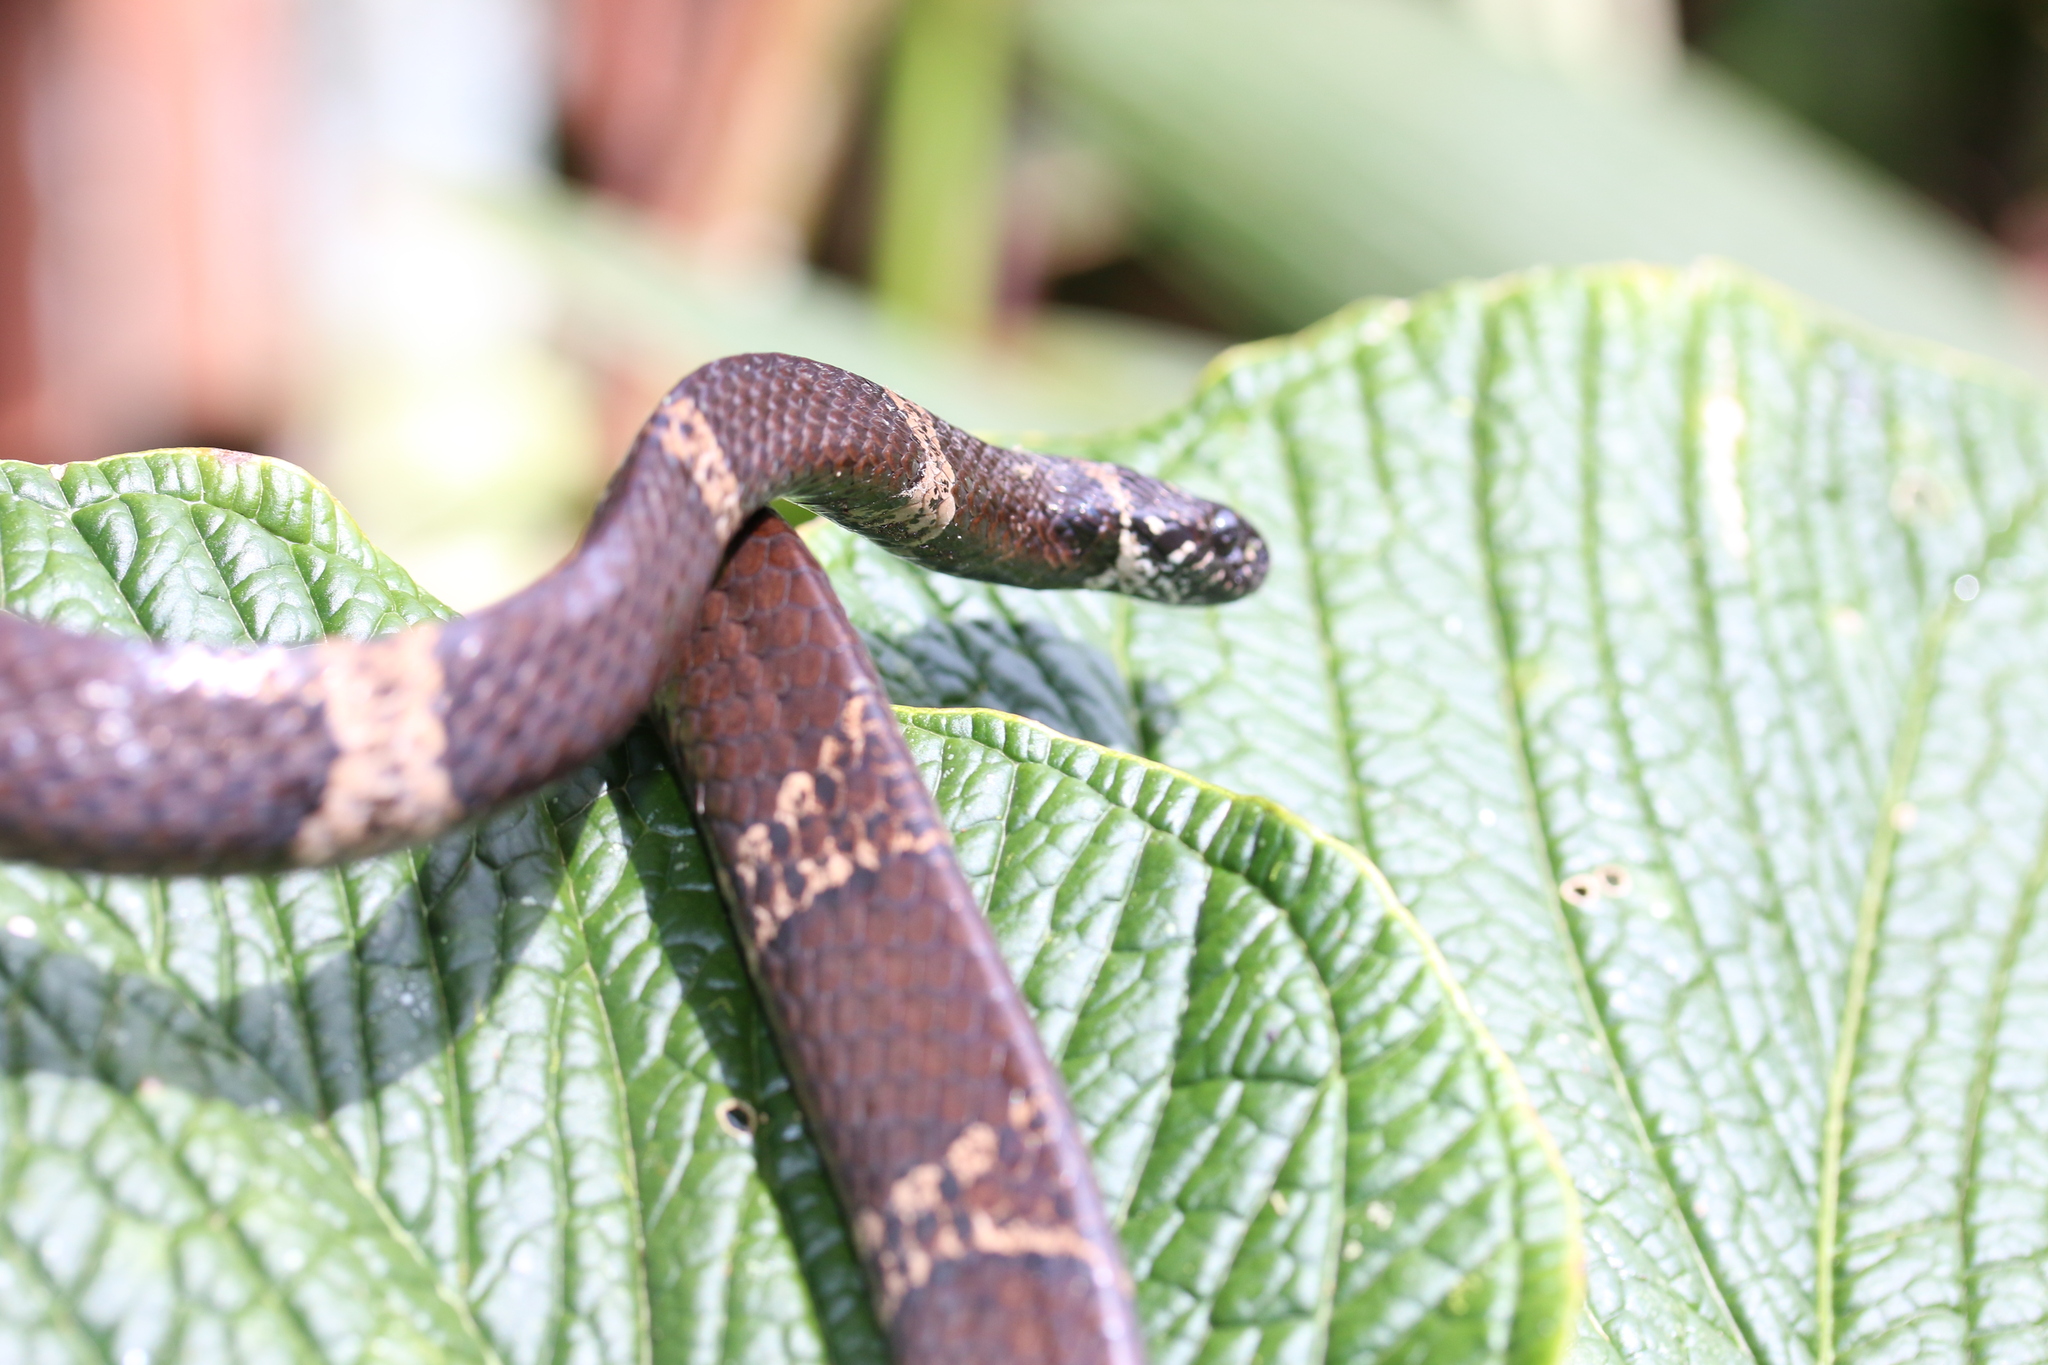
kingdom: Animalia
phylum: Chordata
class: Squamata
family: Colubridae
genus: Dipsas
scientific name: Dipsas klebbai
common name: Klebba’s snail-eater
